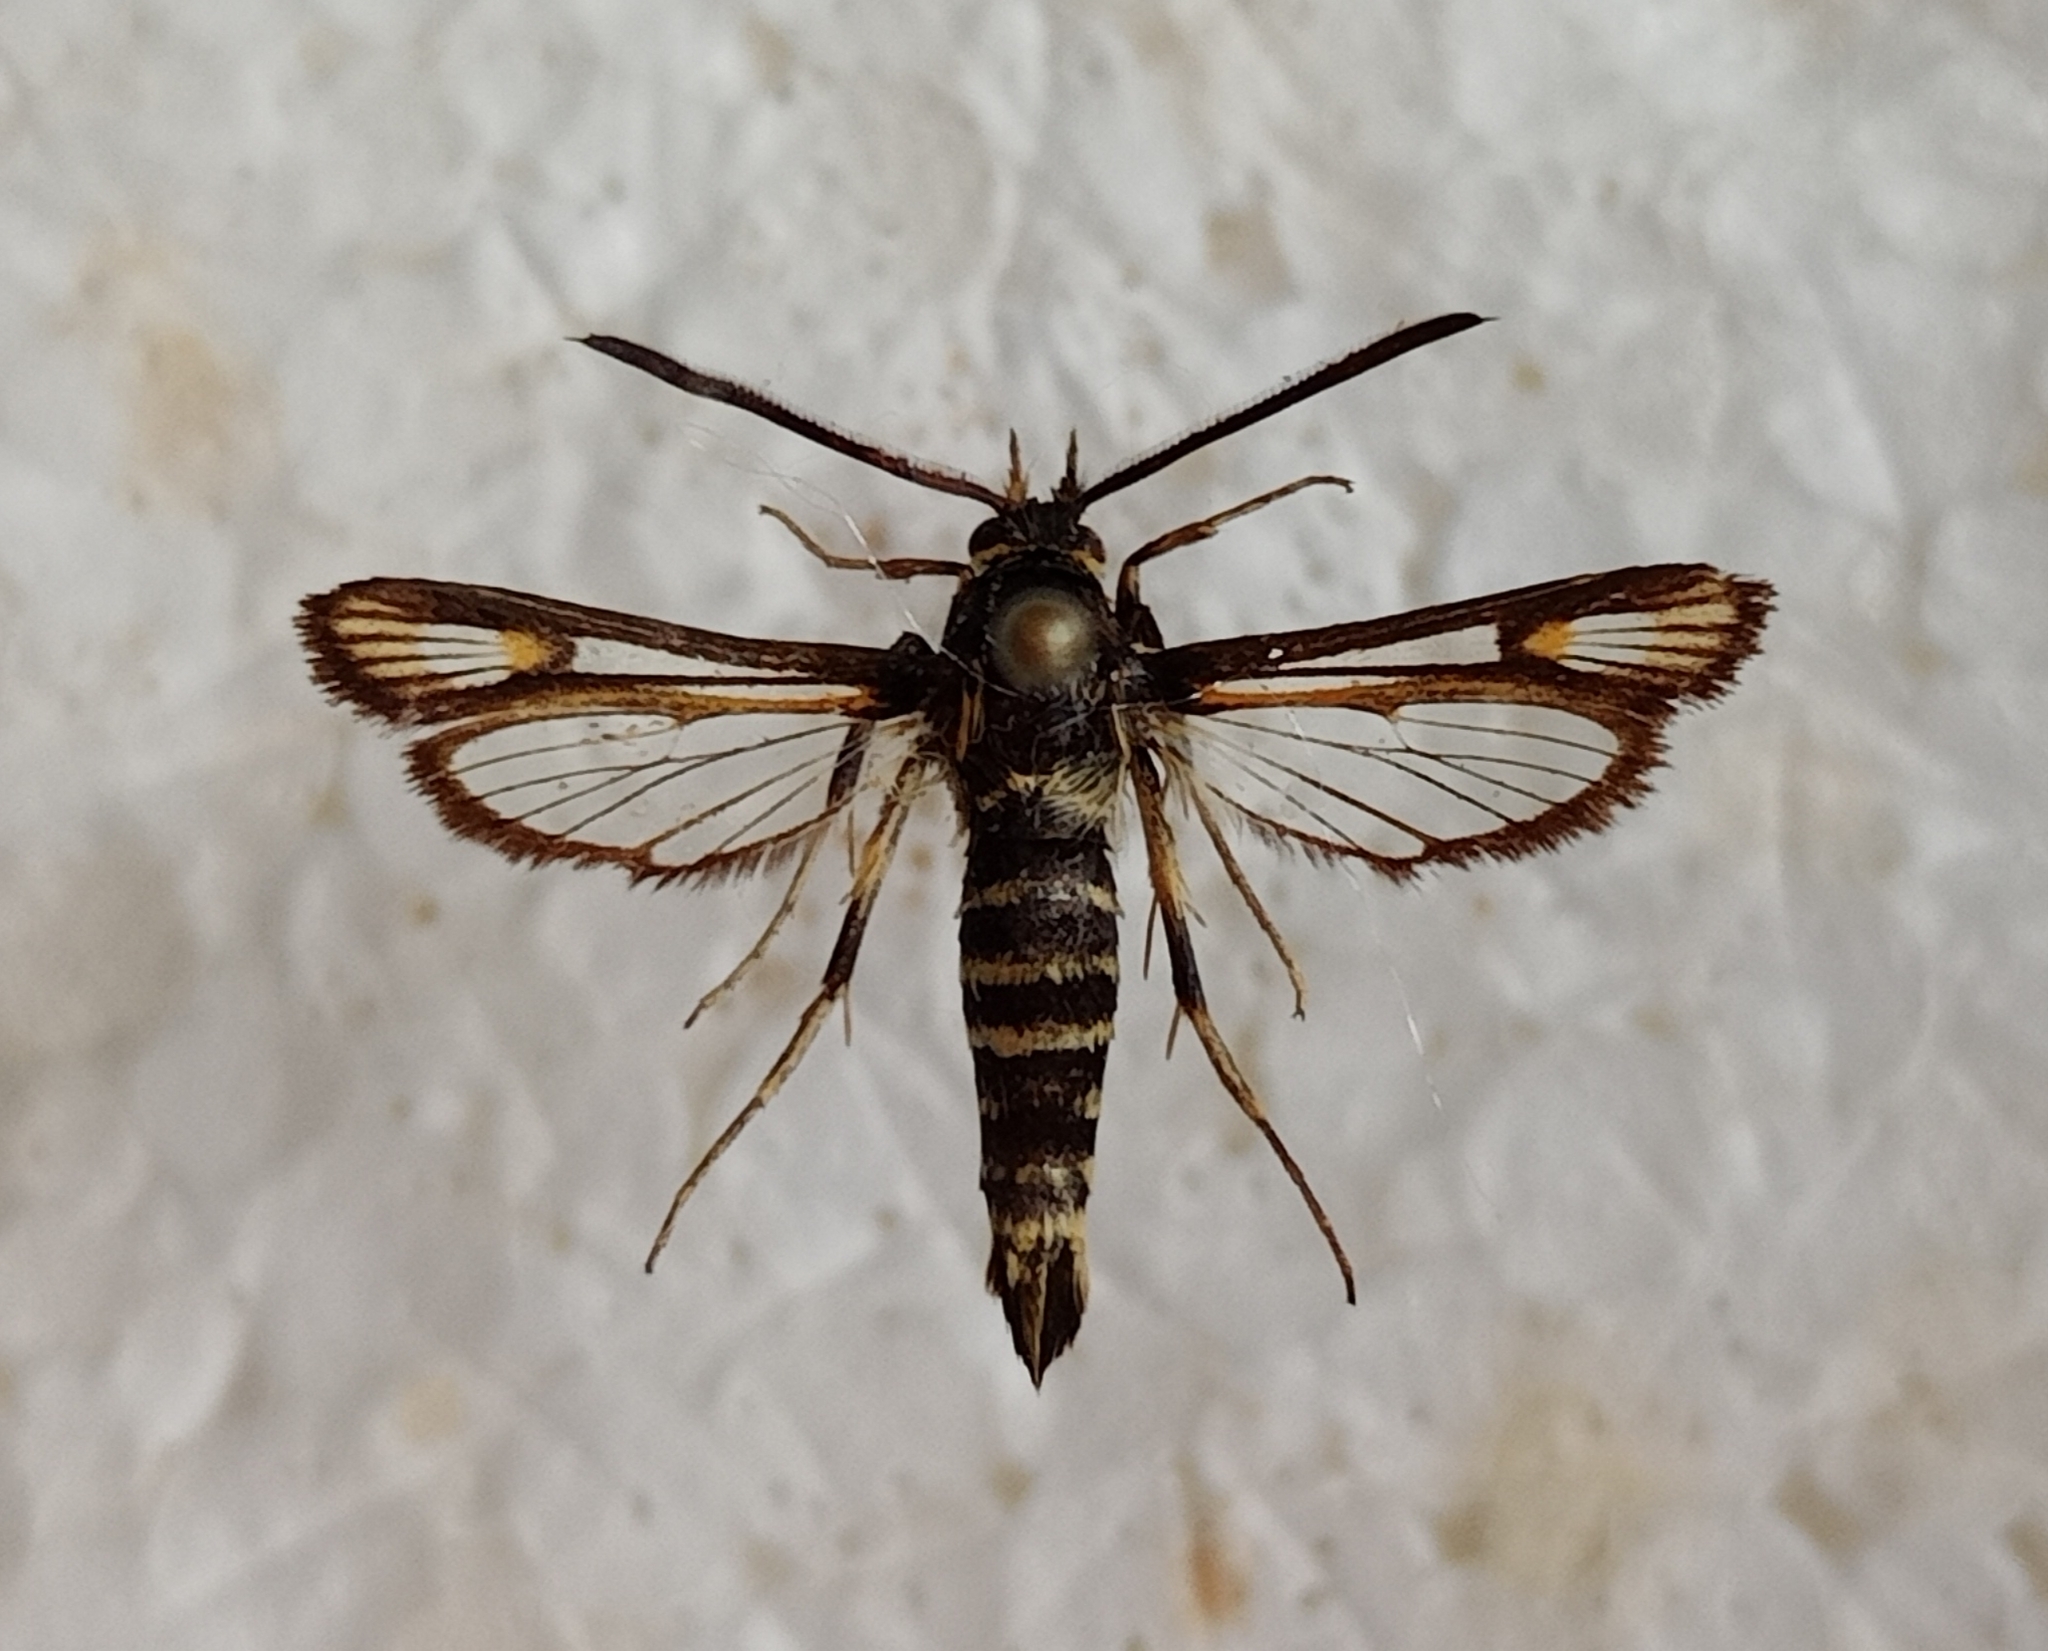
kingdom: Animalia
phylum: Arthropoda
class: Insecta
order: Lepidoptera
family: Sesiidae
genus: Bembecia
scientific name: Bembecia albanensis
